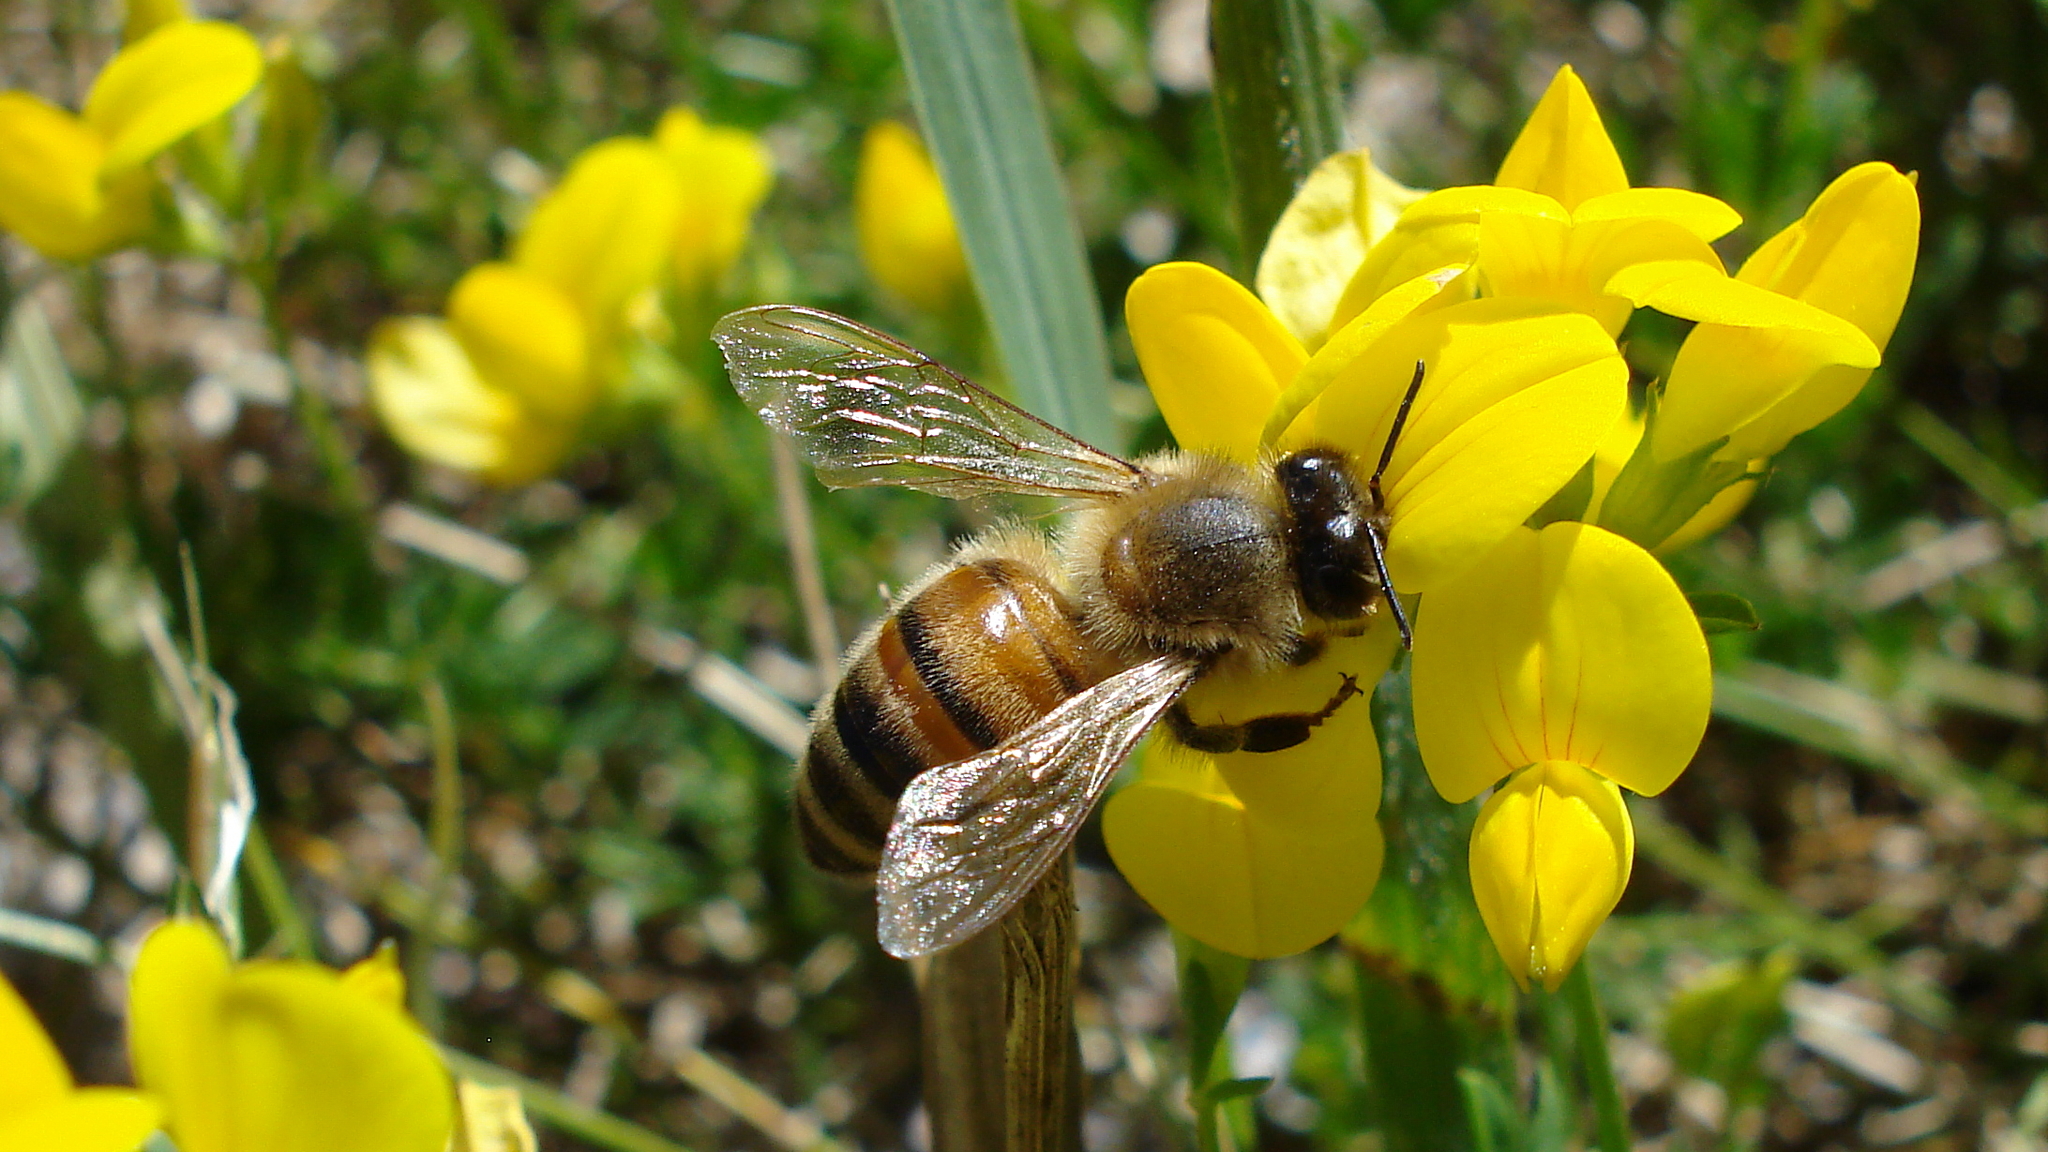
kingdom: Animalia
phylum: Arthropoda
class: Insecta
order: Hymenoptera
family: Apidae
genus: Apis
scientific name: Apis mellifera
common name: Honey bee
